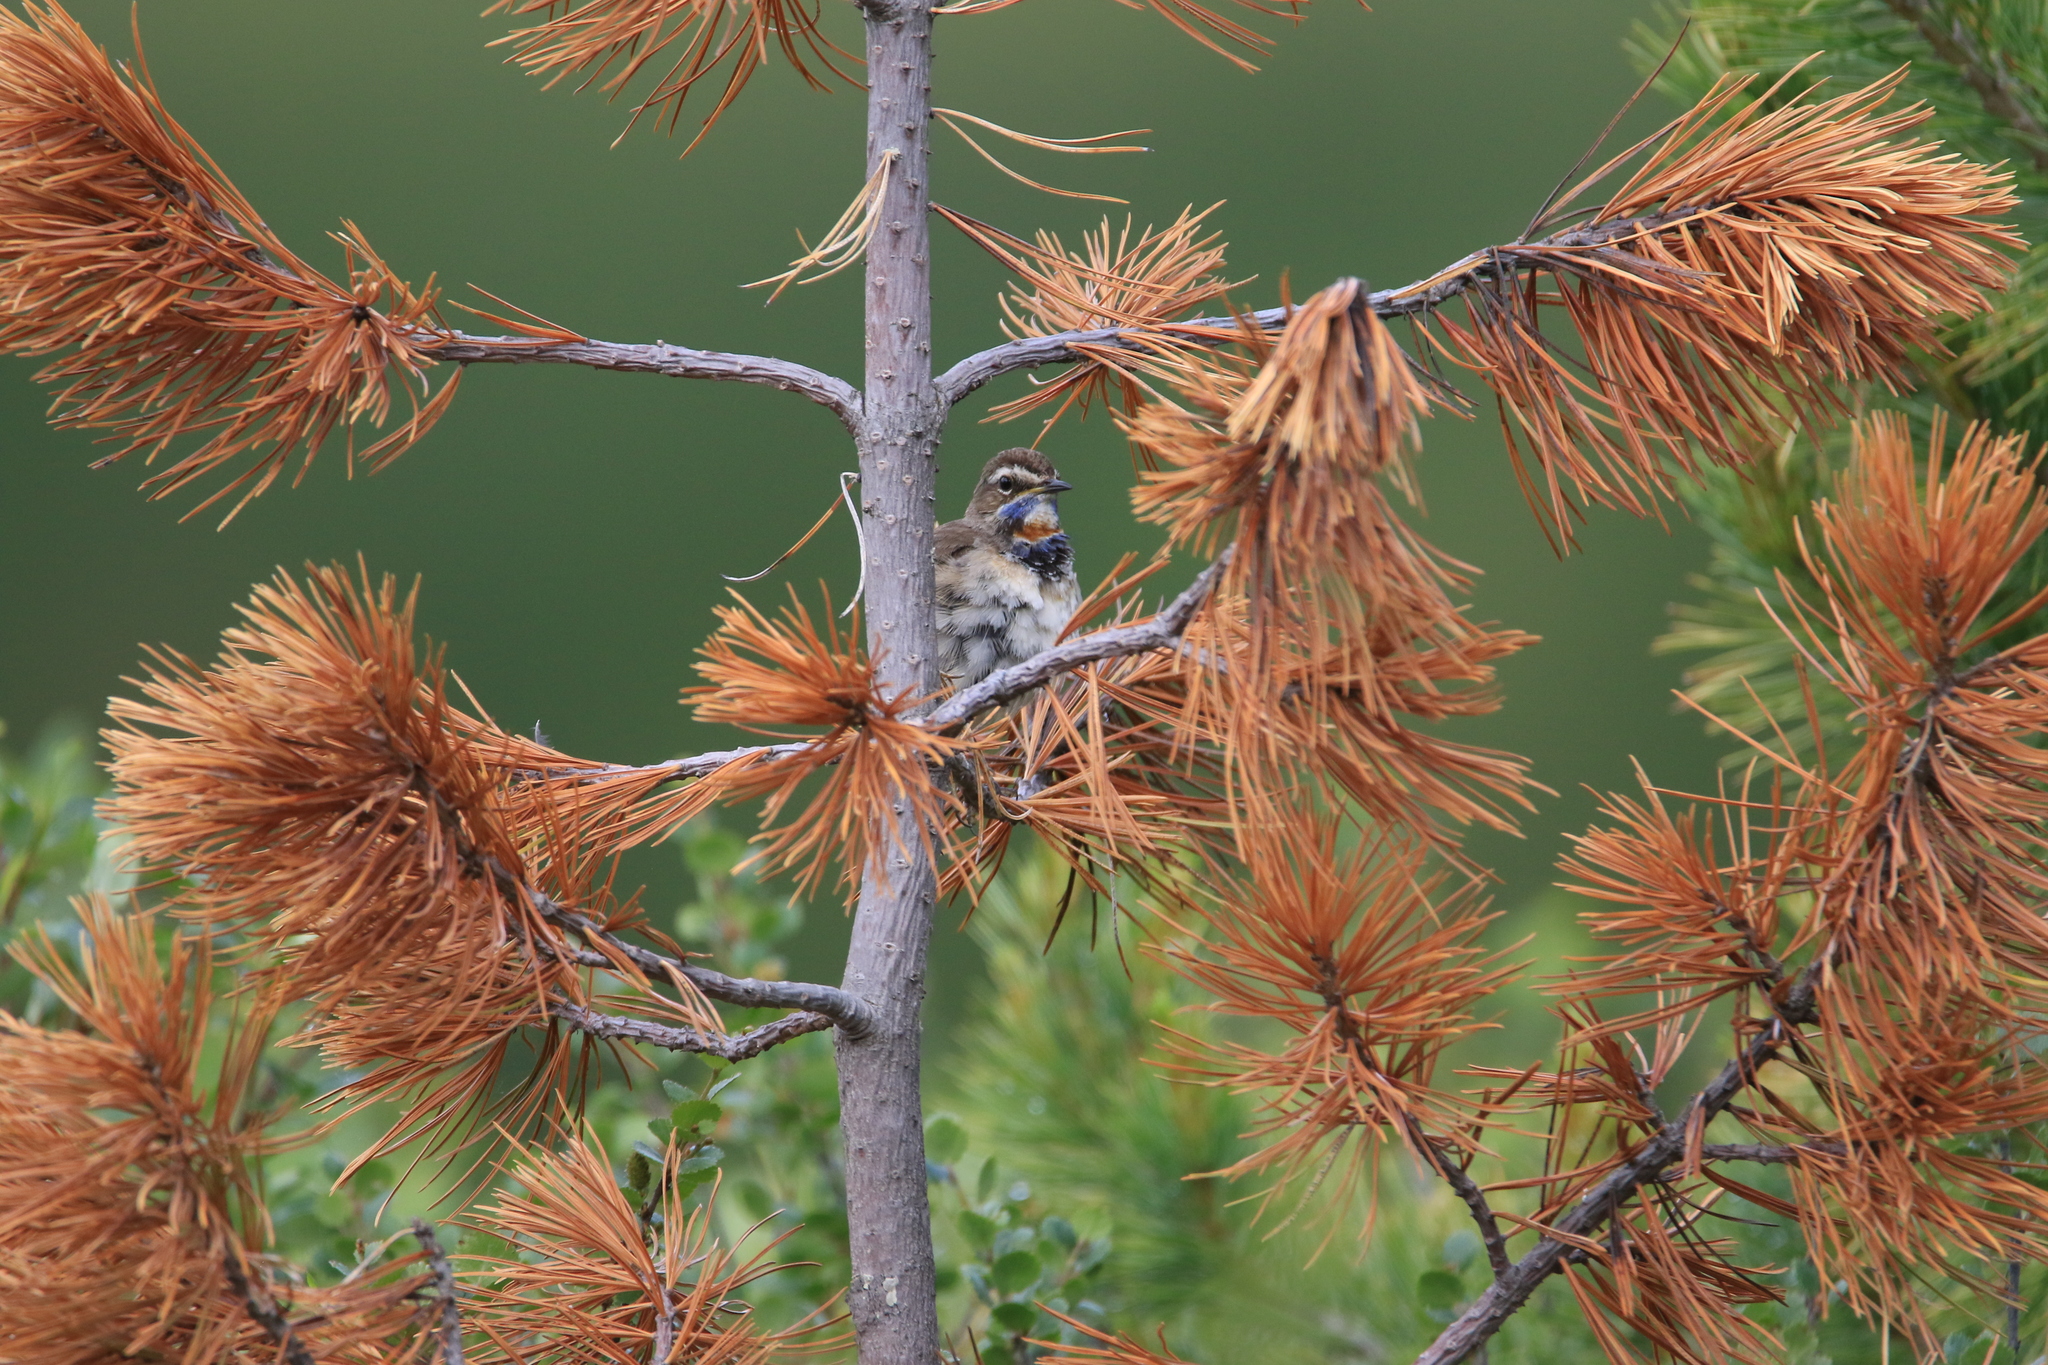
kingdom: Animalia
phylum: Chordata
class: Aves
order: Passeriformes
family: Muscicapidae
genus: Luscinia
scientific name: Luscinia svecica
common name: Bluethroat
